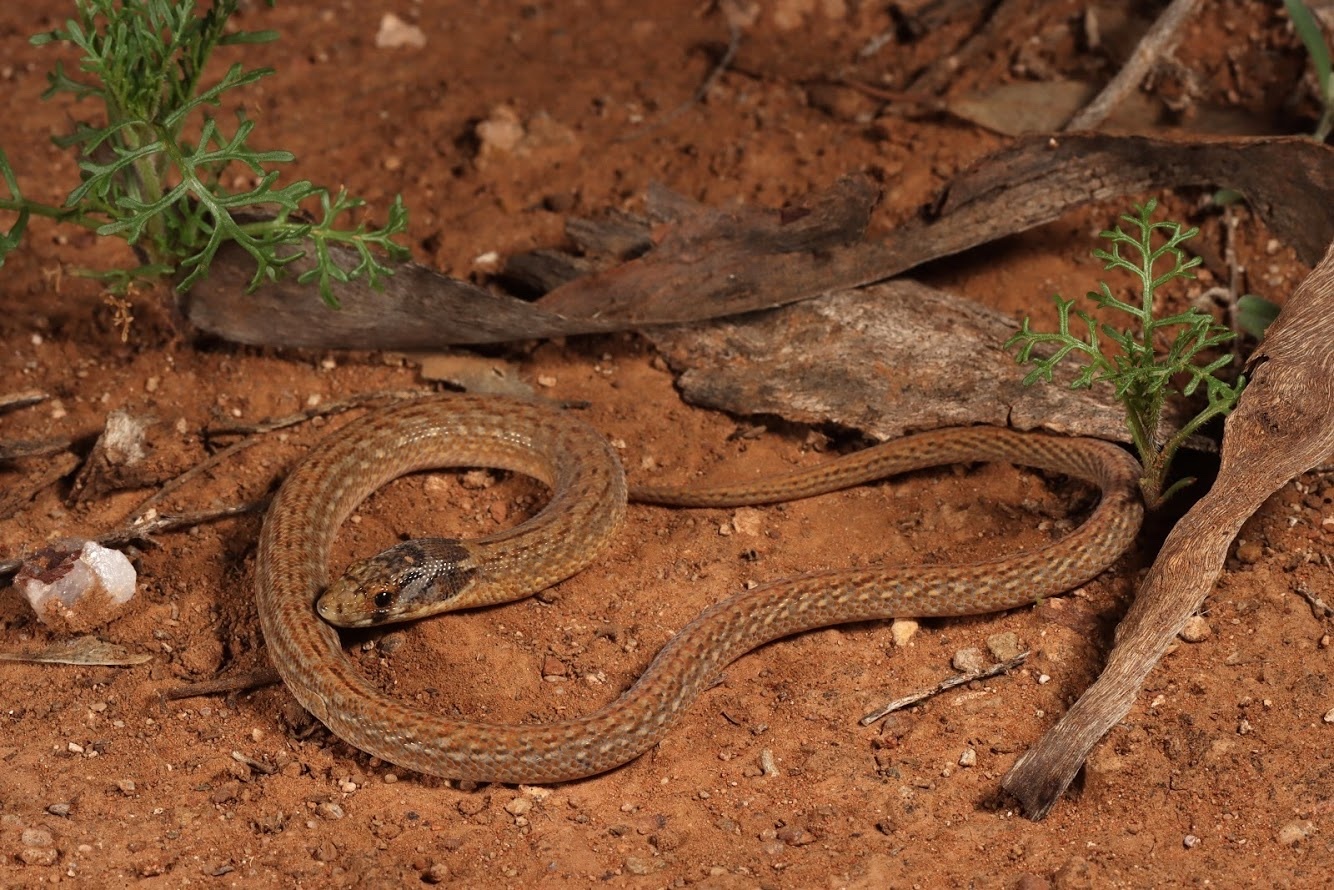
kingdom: Animalia
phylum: Chordata
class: Squamata
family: Pygopodidae
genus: Pygopus
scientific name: Pygopus schraderi
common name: Eastern scaly-foot
